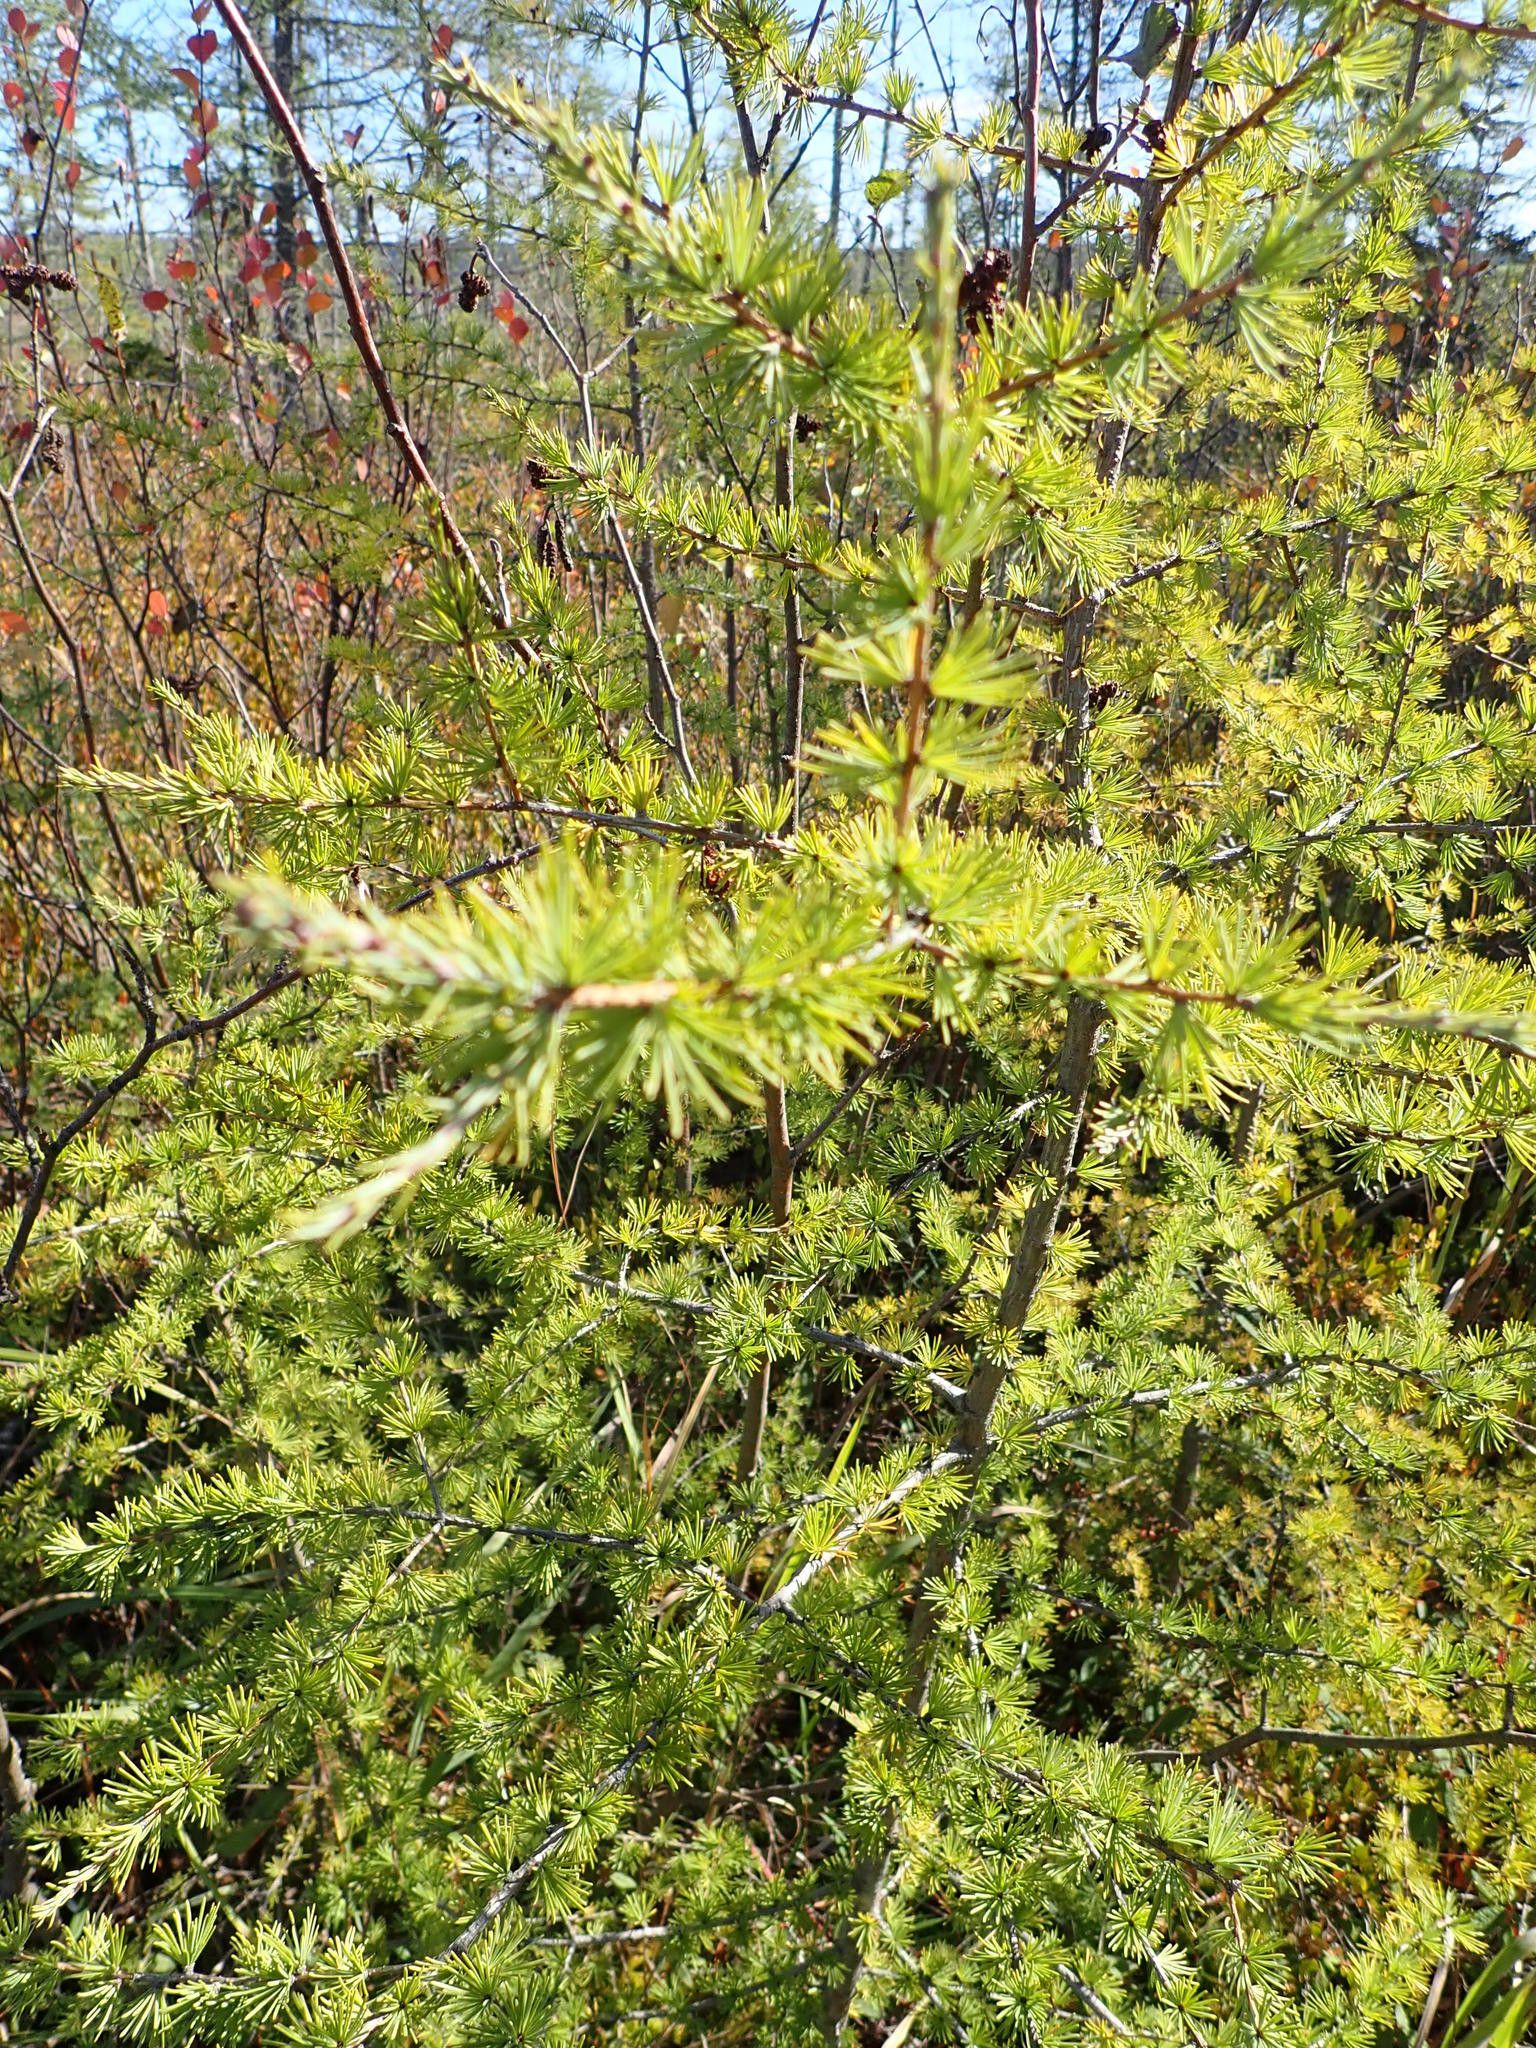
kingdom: Plantae
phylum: Tracheophyta
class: Pinopsida
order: Pinales
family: Pinaceae
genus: Larix
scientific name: Larix laricina
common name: American larch
